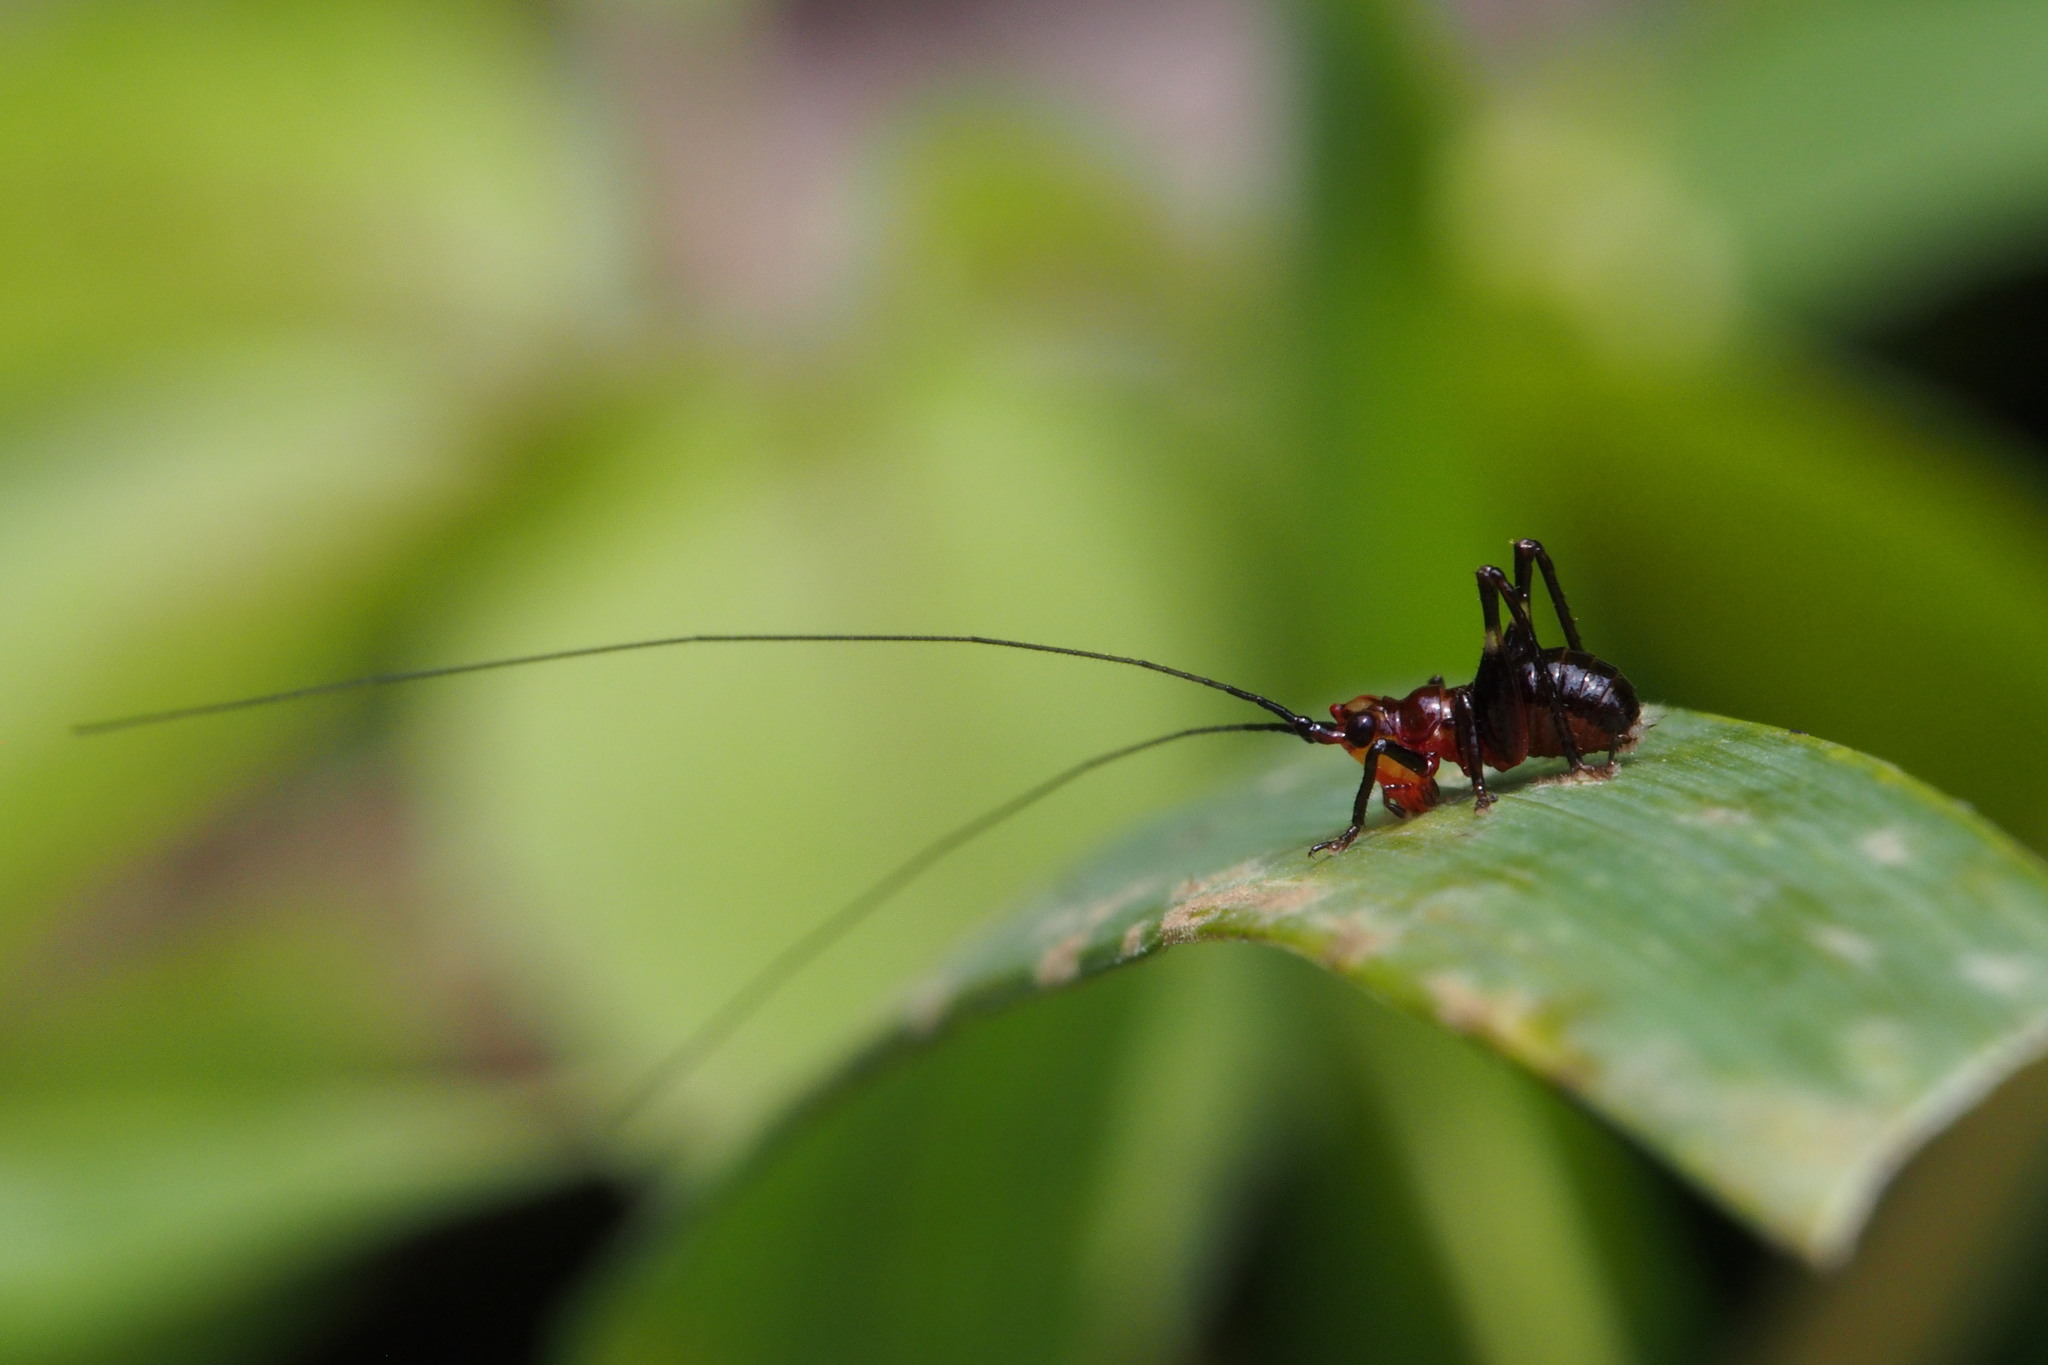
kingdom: Animalia
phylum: Arthropoda
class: Insecta
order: Orthoptera
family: Tettigoniidae
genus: Conocephalus
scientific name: Conocephalus melaenus
